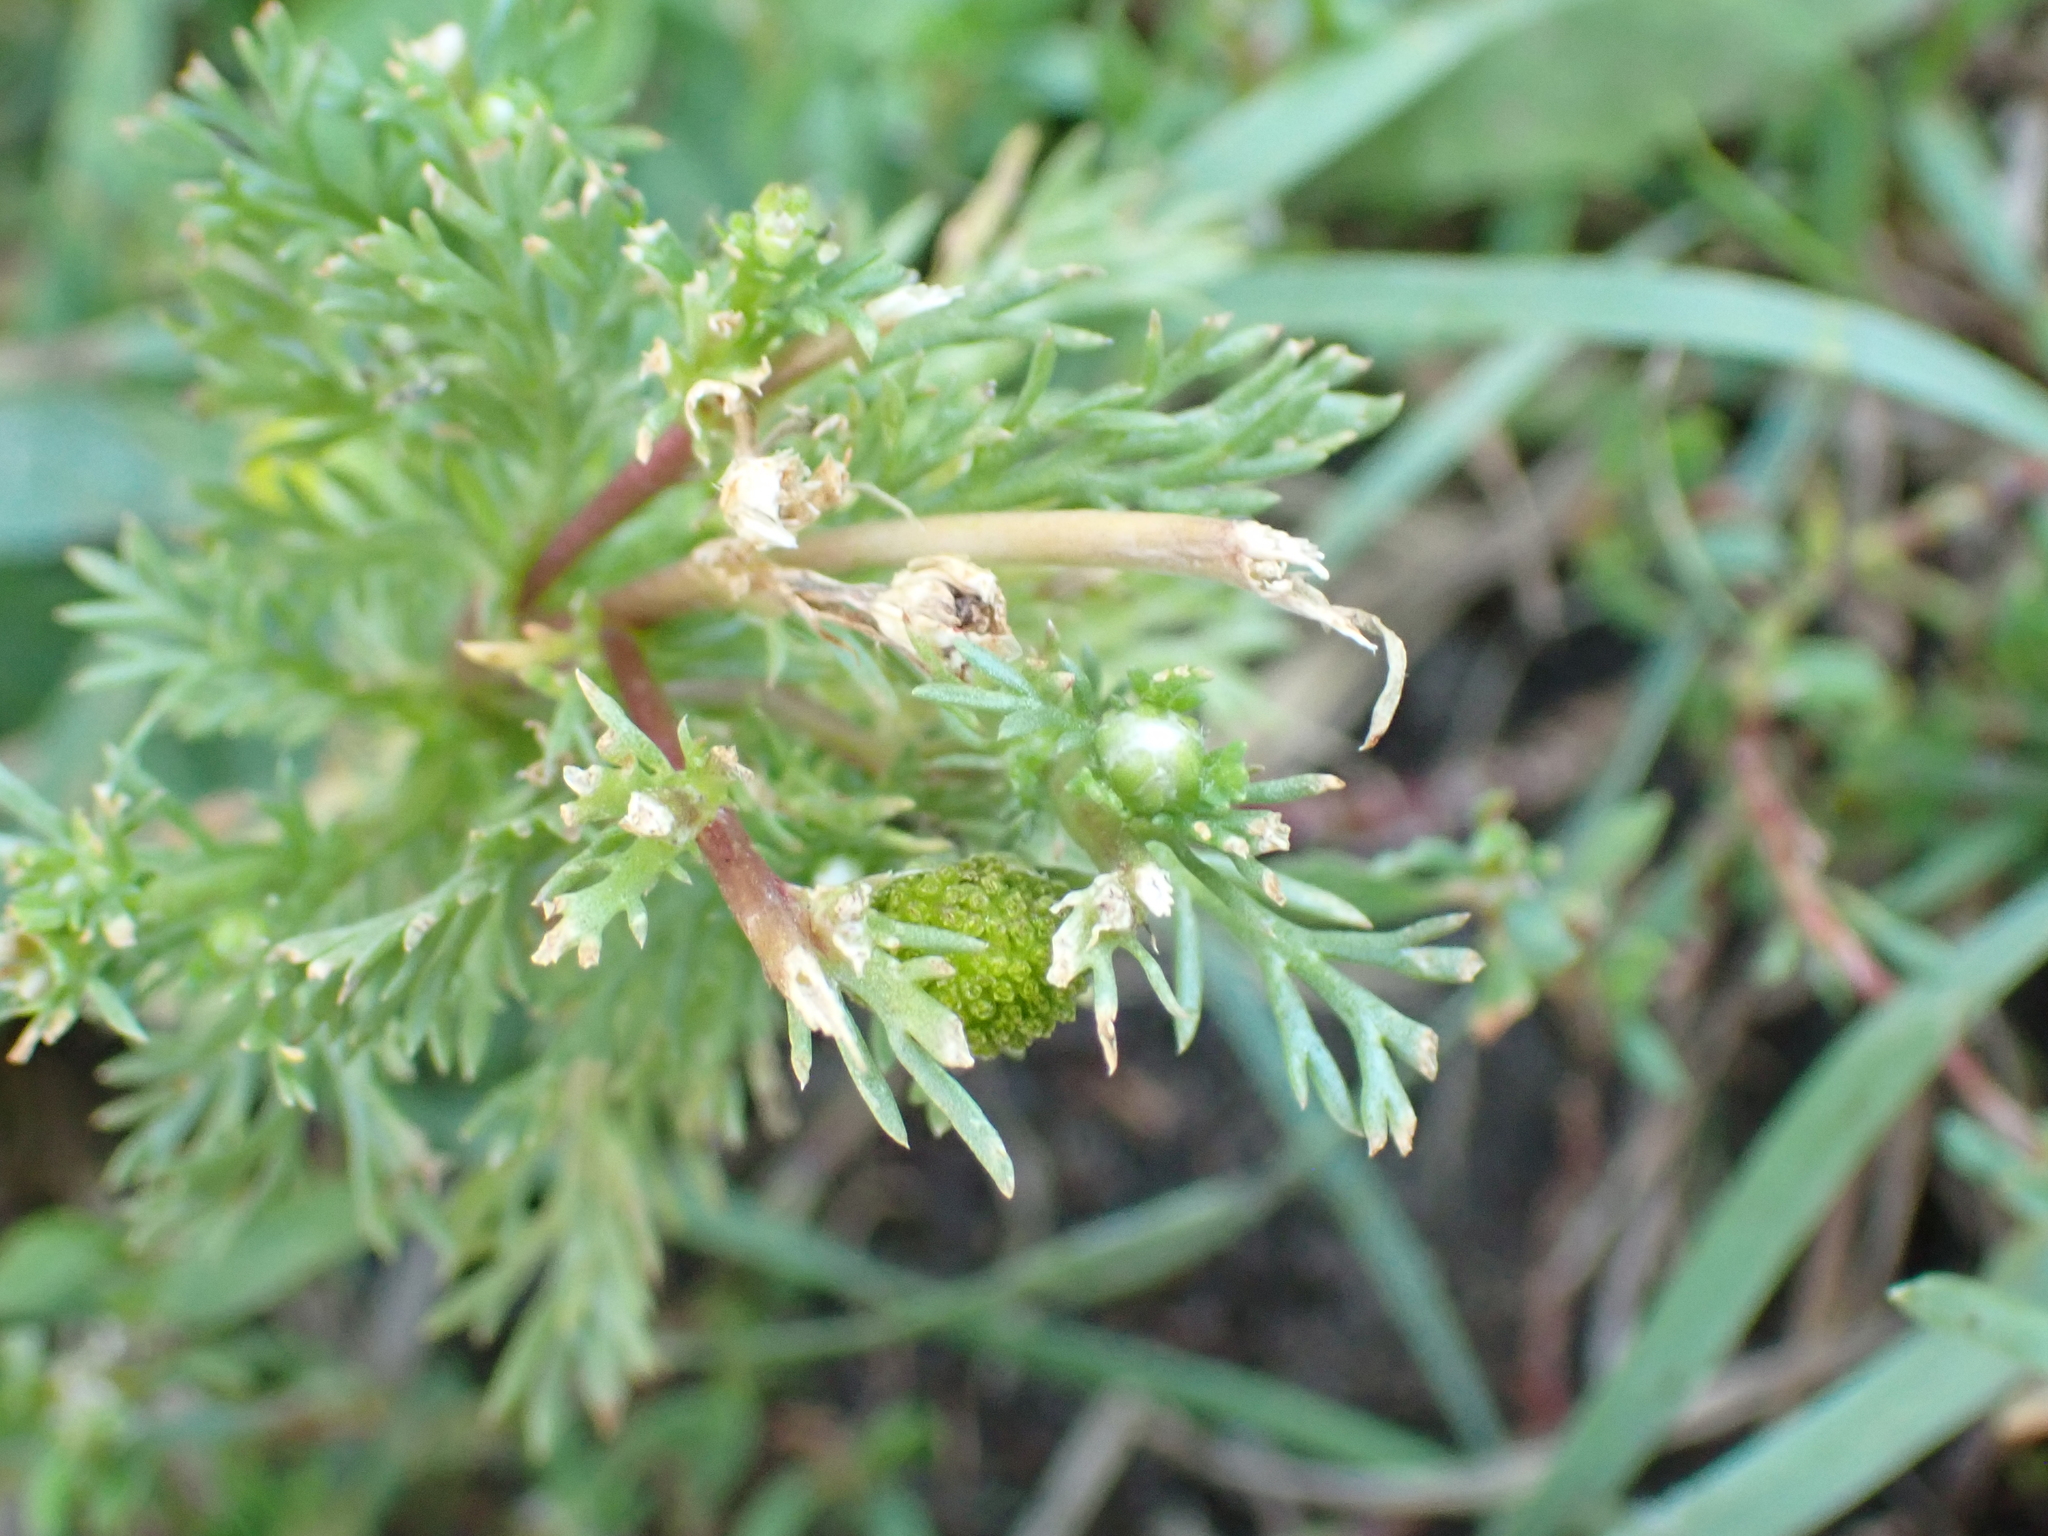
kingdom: Plantae
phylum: Tracheophyta
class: Magnoliopsida
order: Asterales
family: Asteraceae
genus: Matricaria
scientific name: Matricaria discoidea
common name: Disc mayweed
